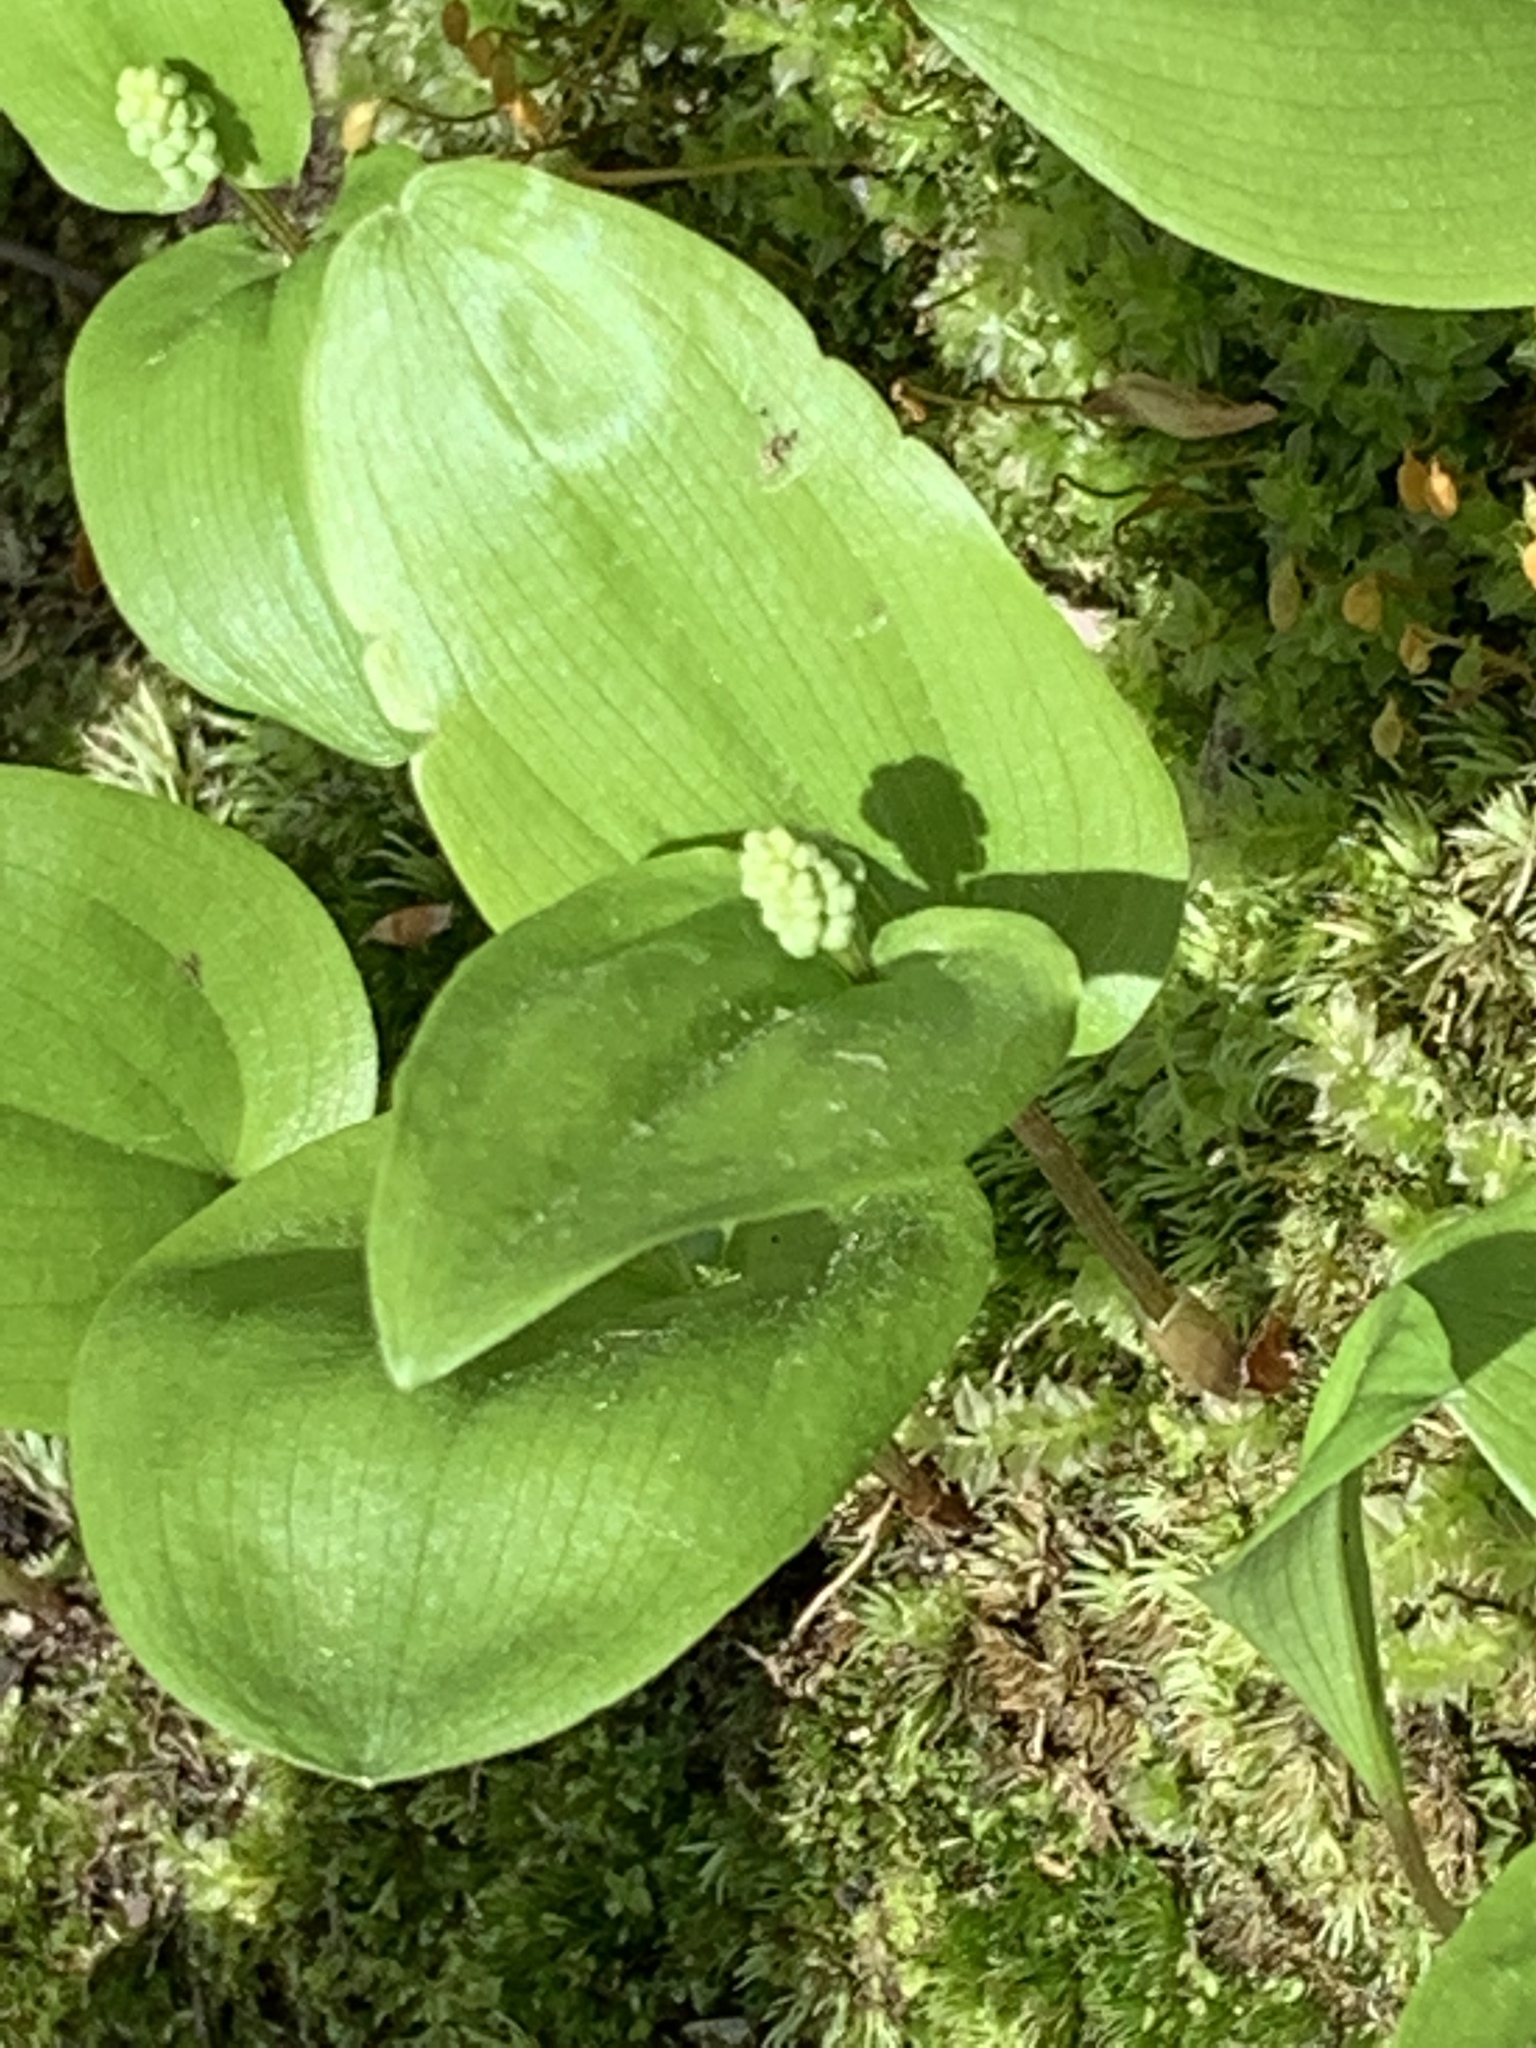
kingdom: Plantae
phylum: Tracheophyta
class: Liliopsida
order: Asparagales
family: Asparagaceae
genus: Maianthemum
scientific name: Maianthemum canadense
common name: False lily-of-the-valley
